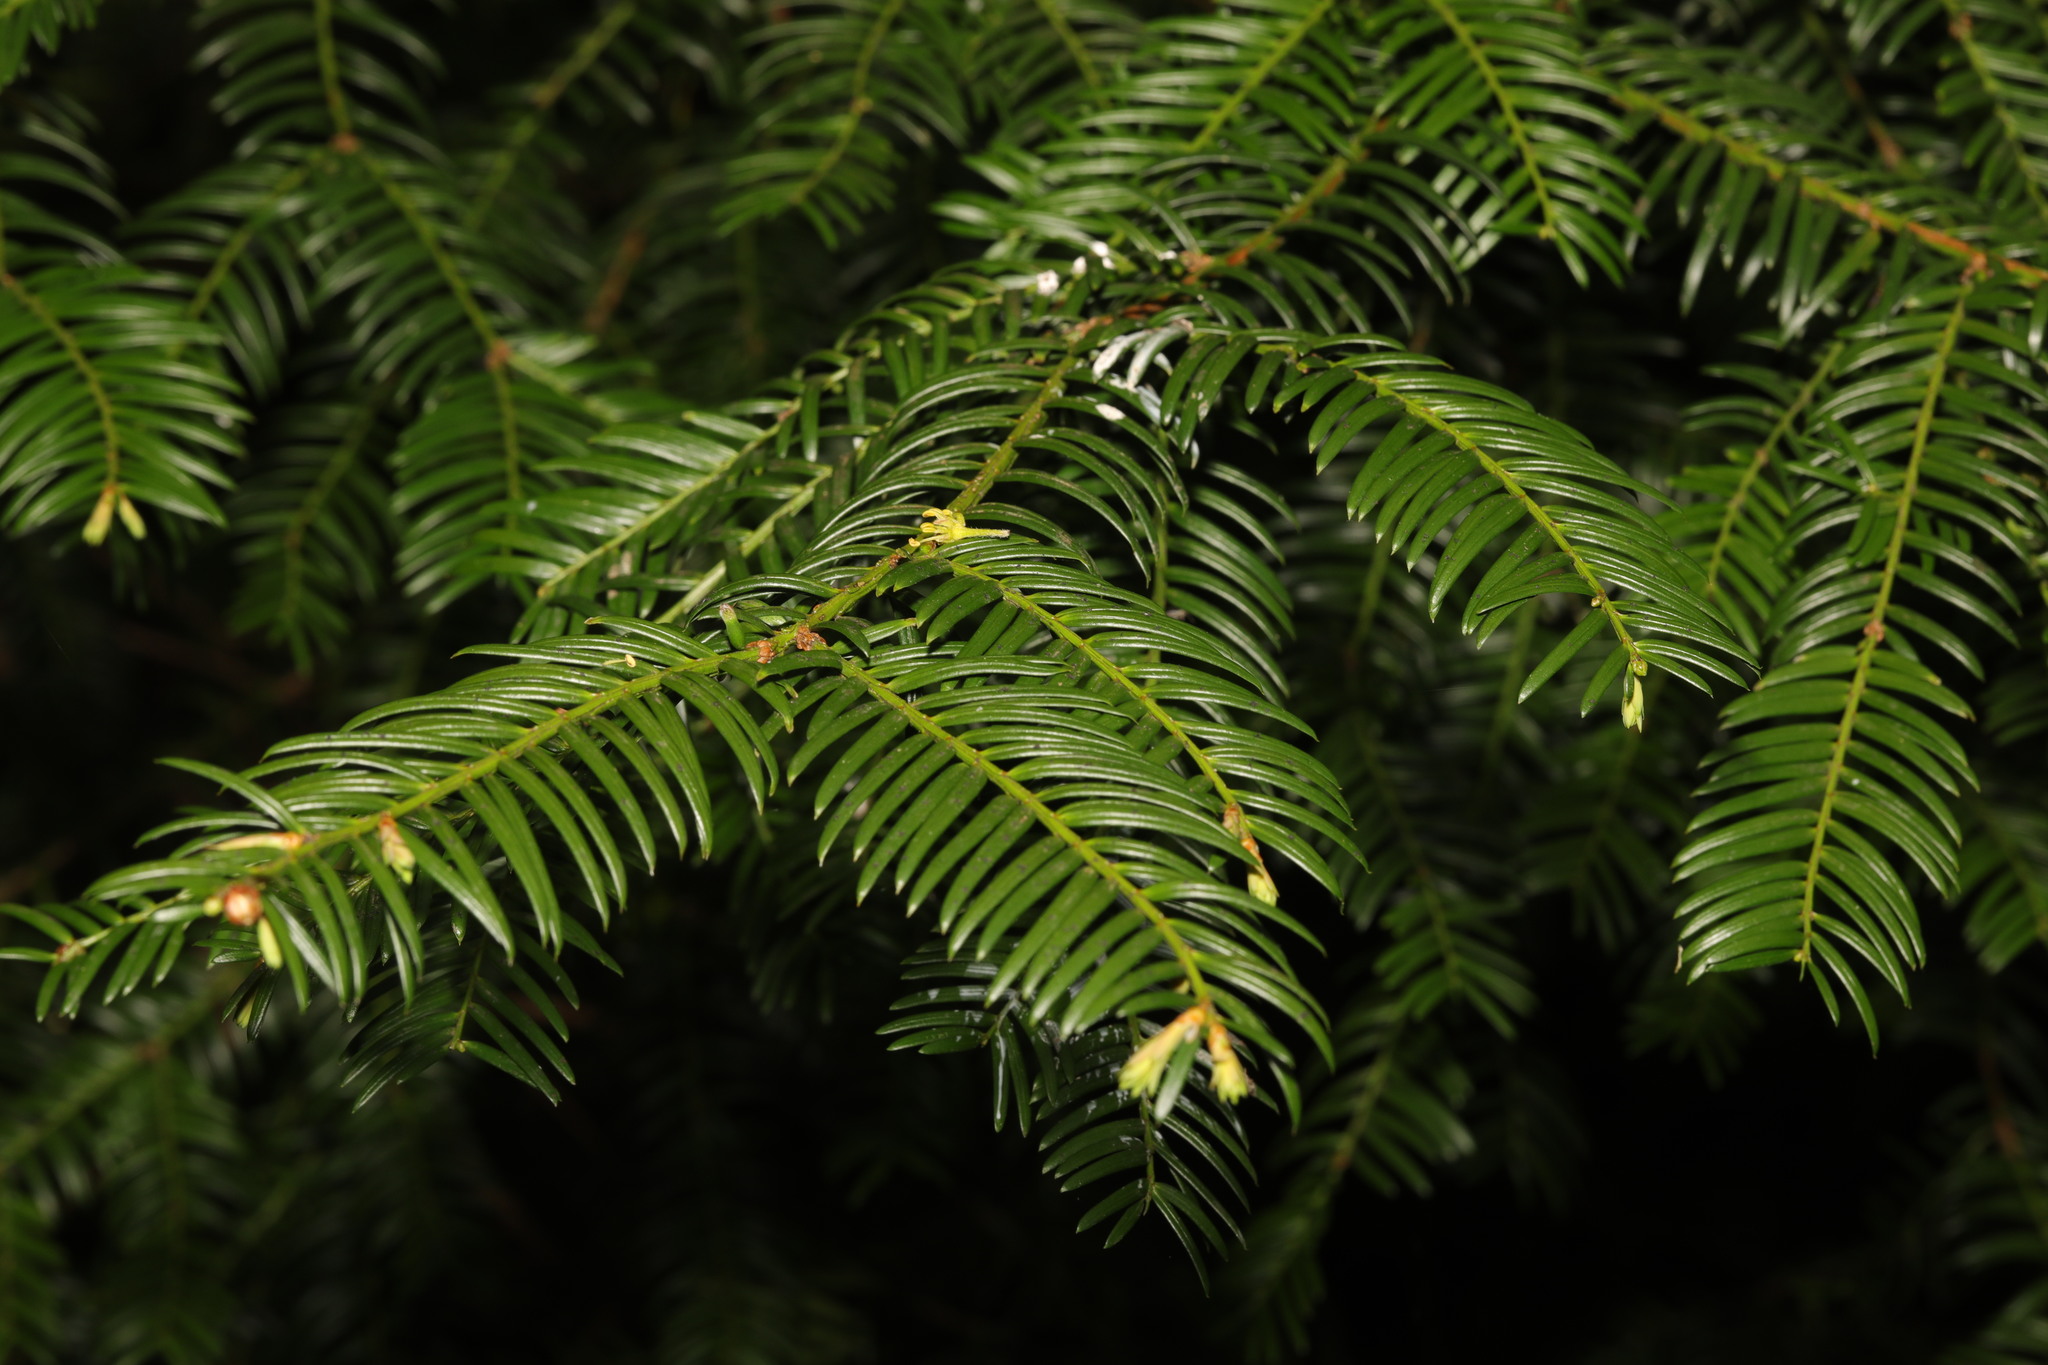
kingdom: Plantae
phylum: Tracheophyta
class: Pinopsida
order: Pinales
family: Taxaceae
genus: Taxus
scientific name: Taxus baccata
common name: Yew
